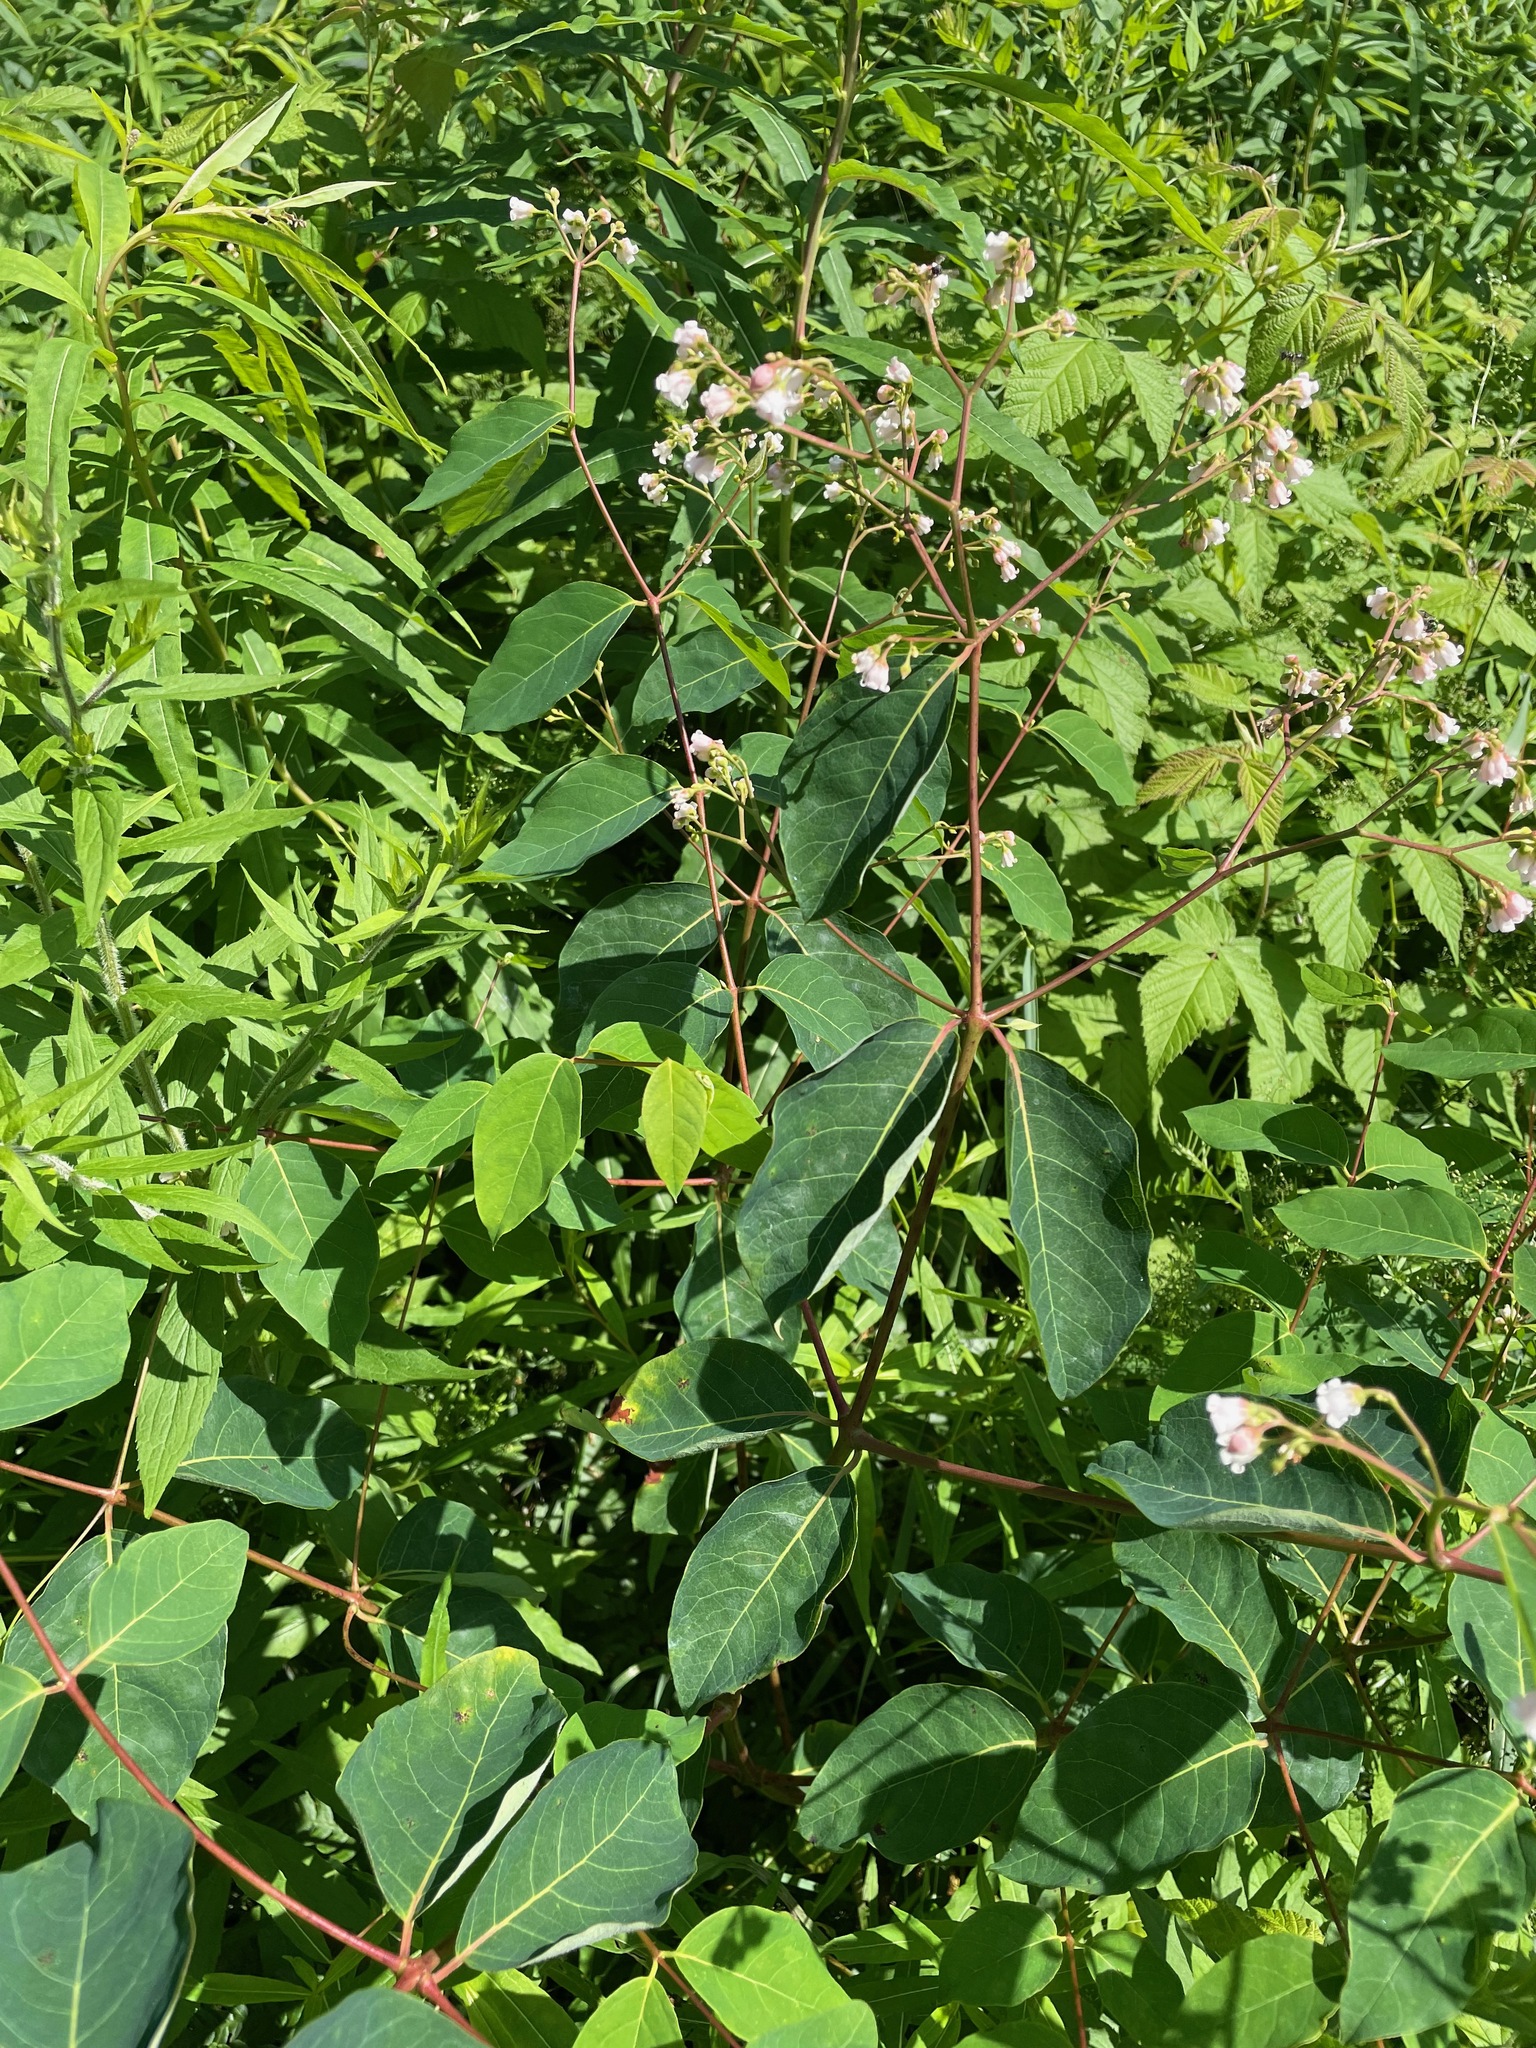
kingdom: Plantae
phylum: Tracheophyta
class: Magnoliopsida
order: Gentianales
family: Apocynaceae
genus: Apocynum
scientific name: Apocynum androsaemifolium
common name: Spreading dogbane
